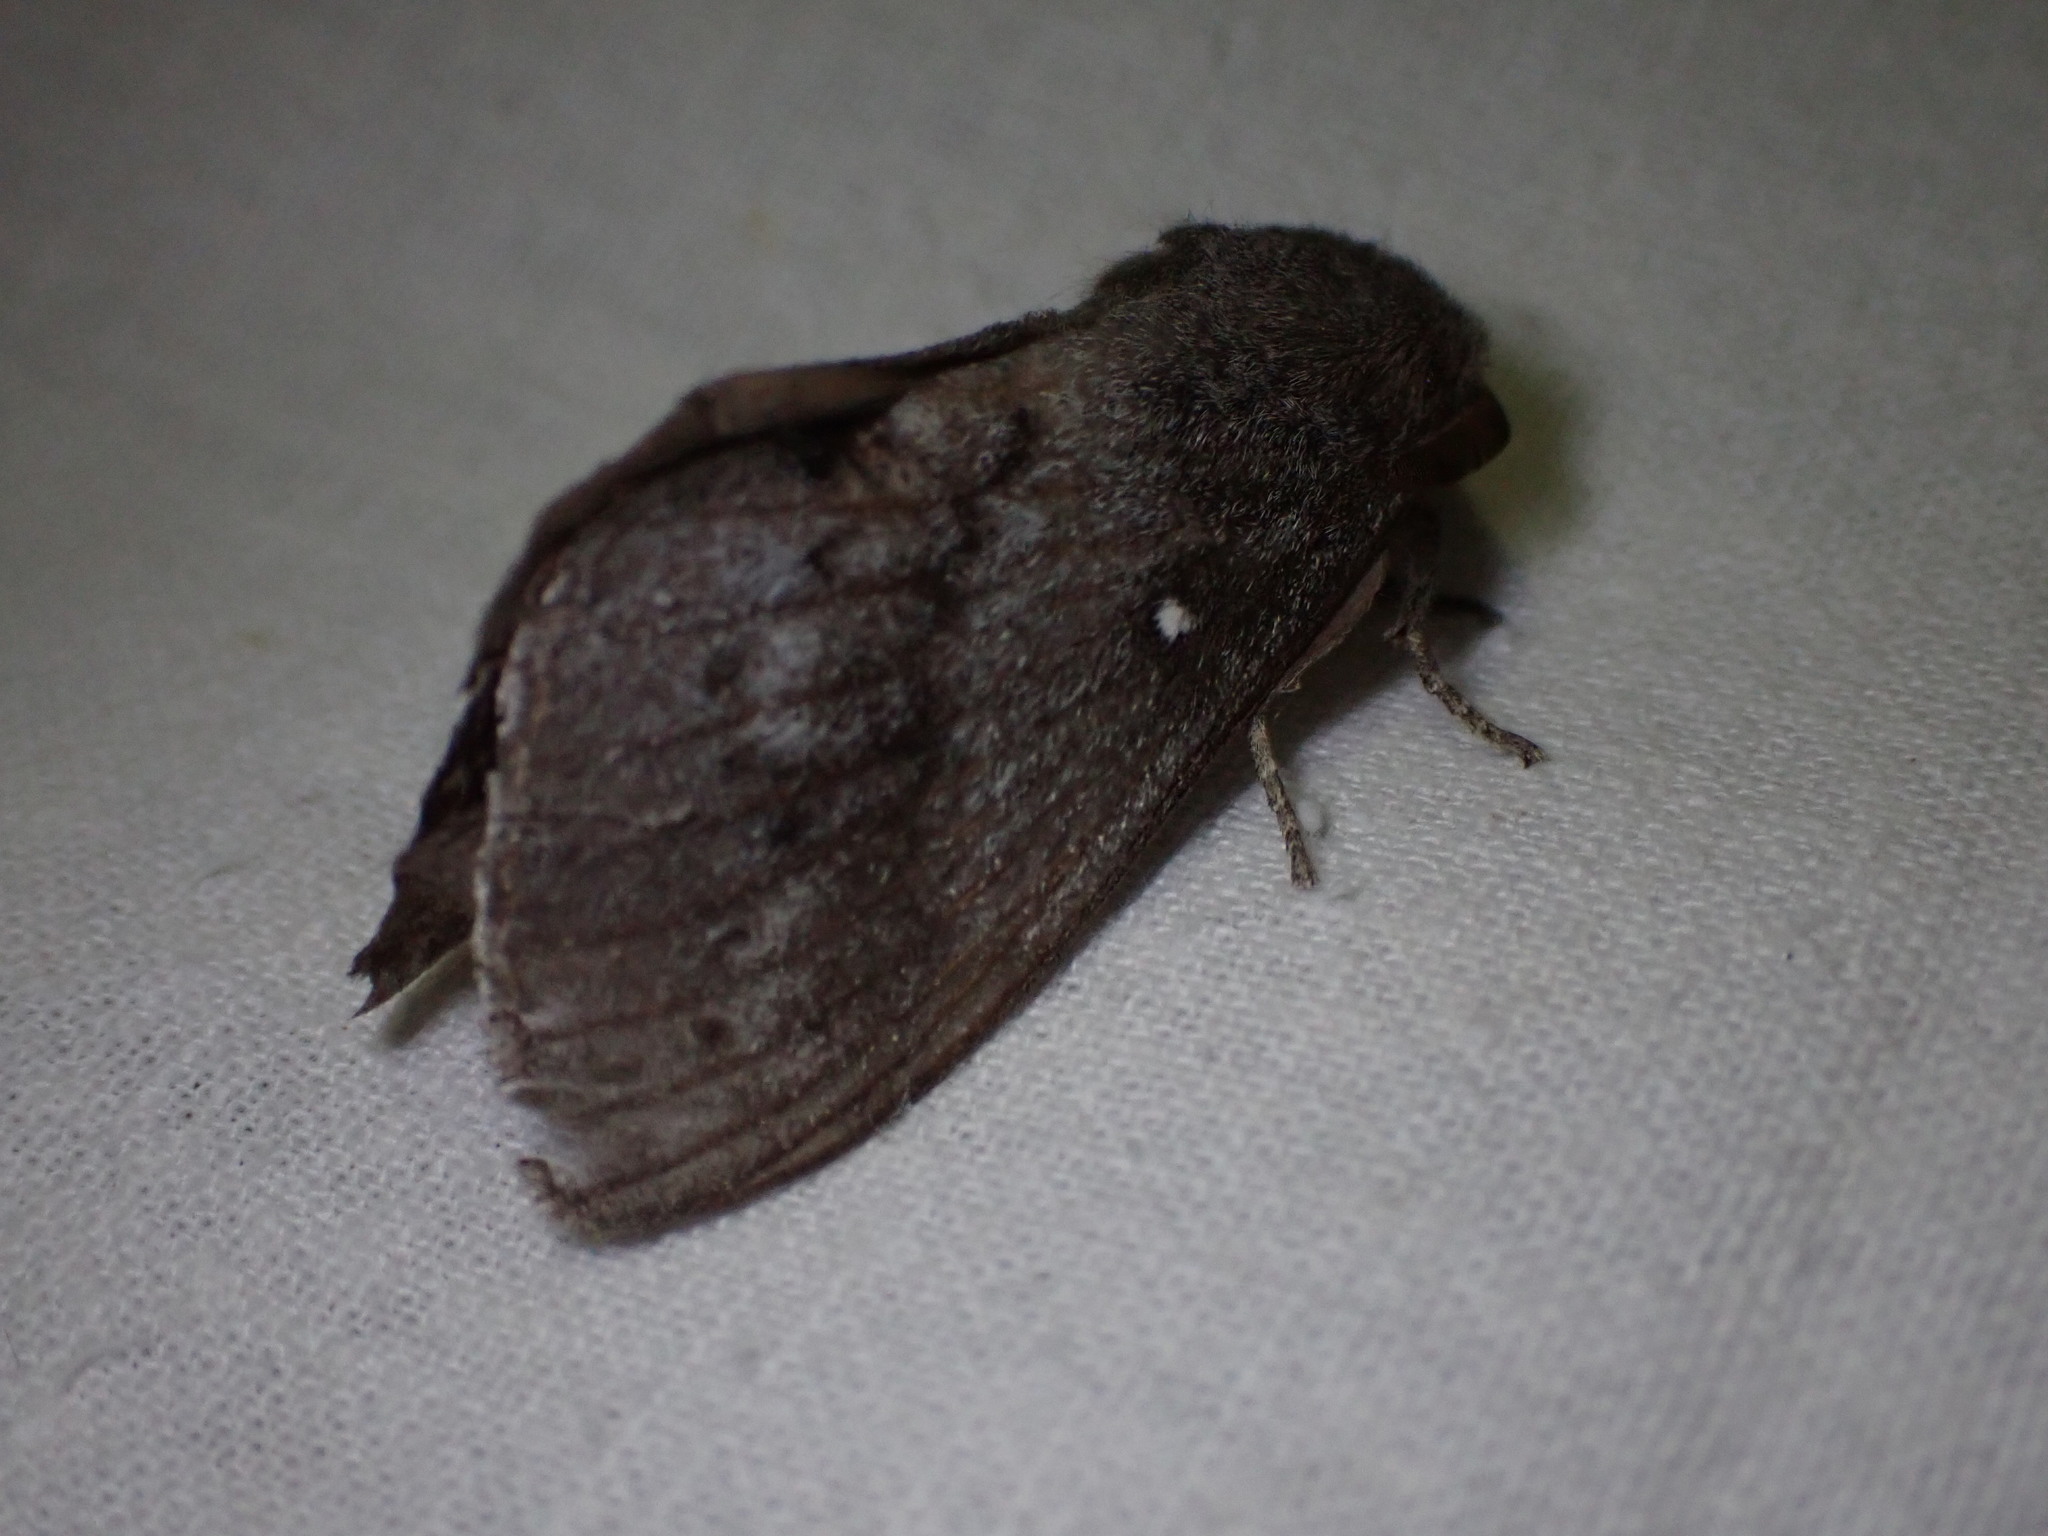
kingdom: Animalia
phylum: Arthropoda
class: Insecta
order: Lepidoptera
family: Lasiocampidae
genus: Dendrolimus
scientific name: Dendrolimus pini
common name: Pine-tree lappet
